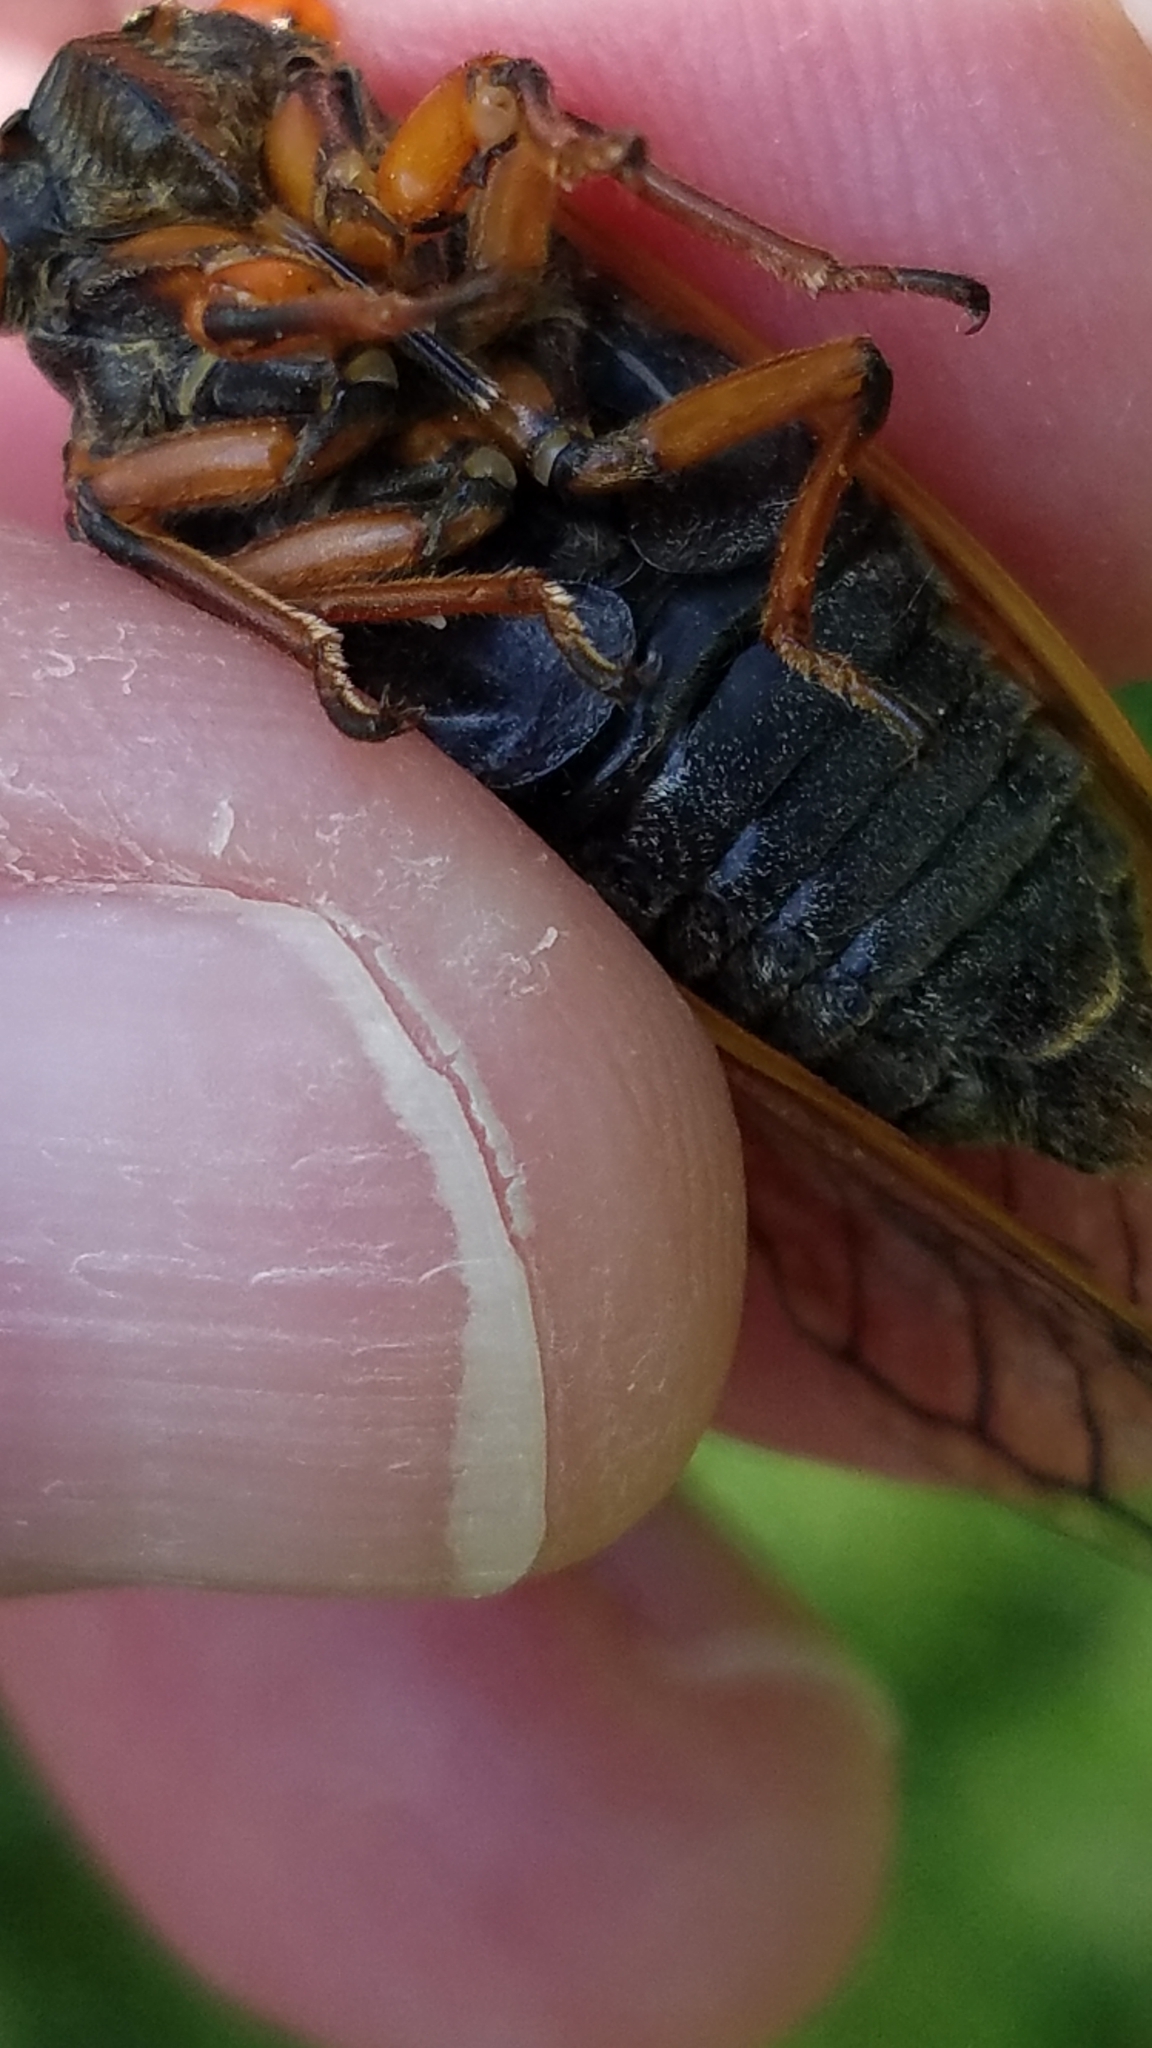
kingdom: Animalia
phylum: Arthropoda
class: Insecta
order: Hemiptera
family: Cicadidae
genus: Magicicada
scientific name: Magicicada cassini
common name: Cassin's 17-year cicada
